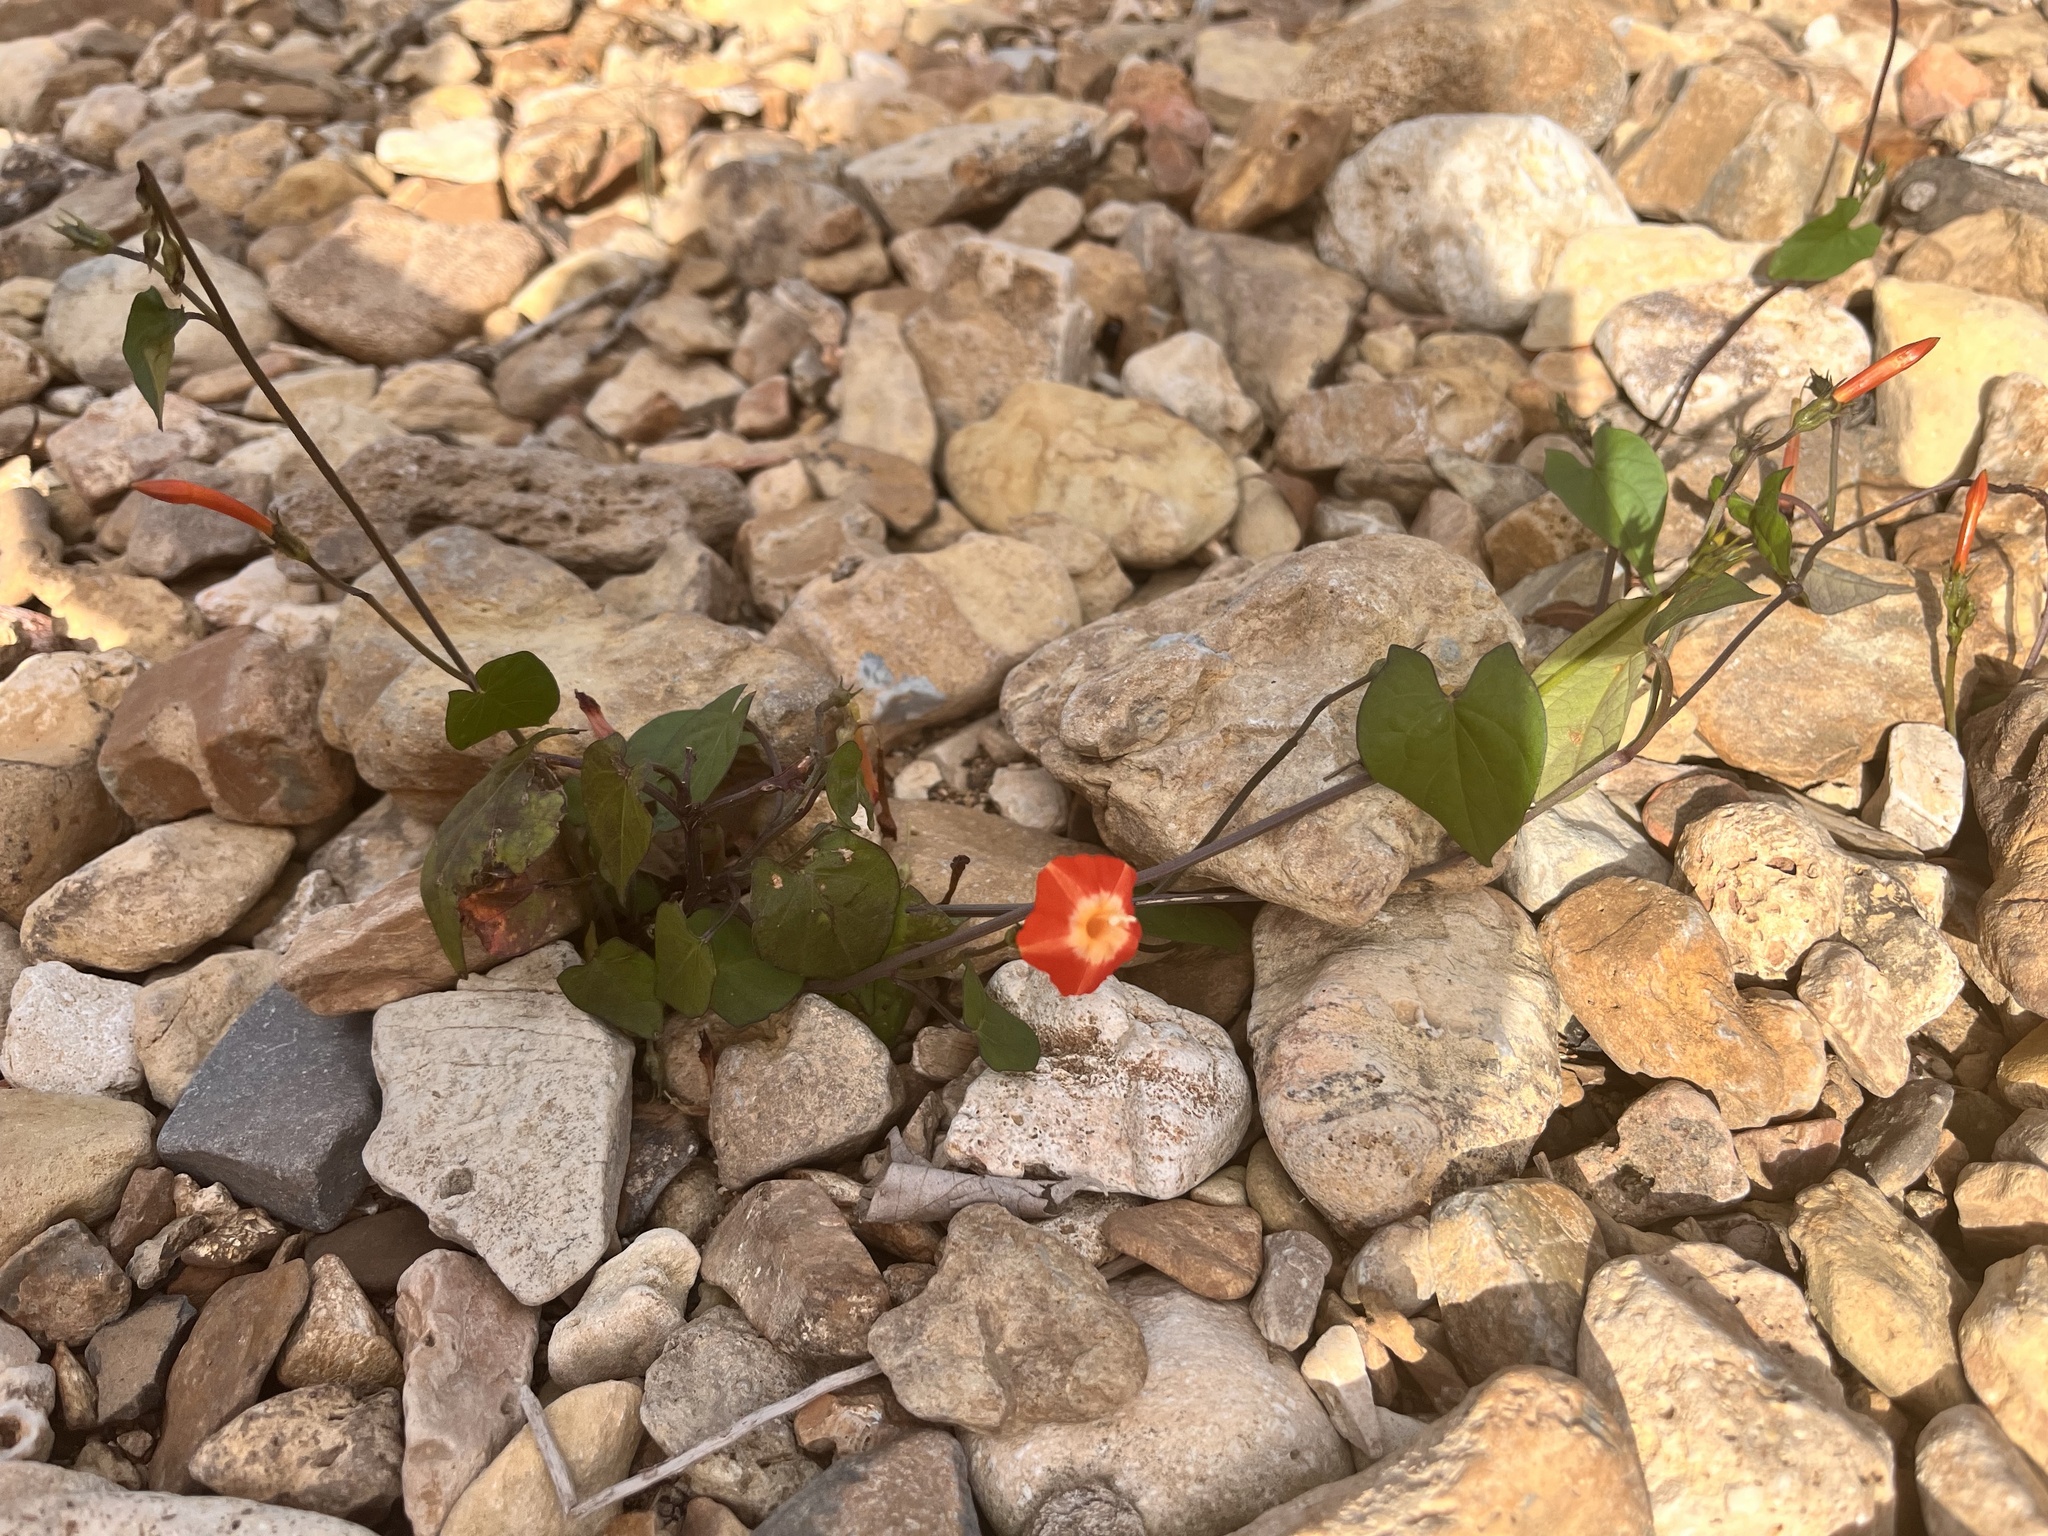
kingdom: Plantae
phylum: Tracheophyta
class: Magnoliopsida
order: Solanales
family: Convolvulaceae
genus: Ipomoea
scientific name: Ipomoea coccinea
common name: Red morning-glory
